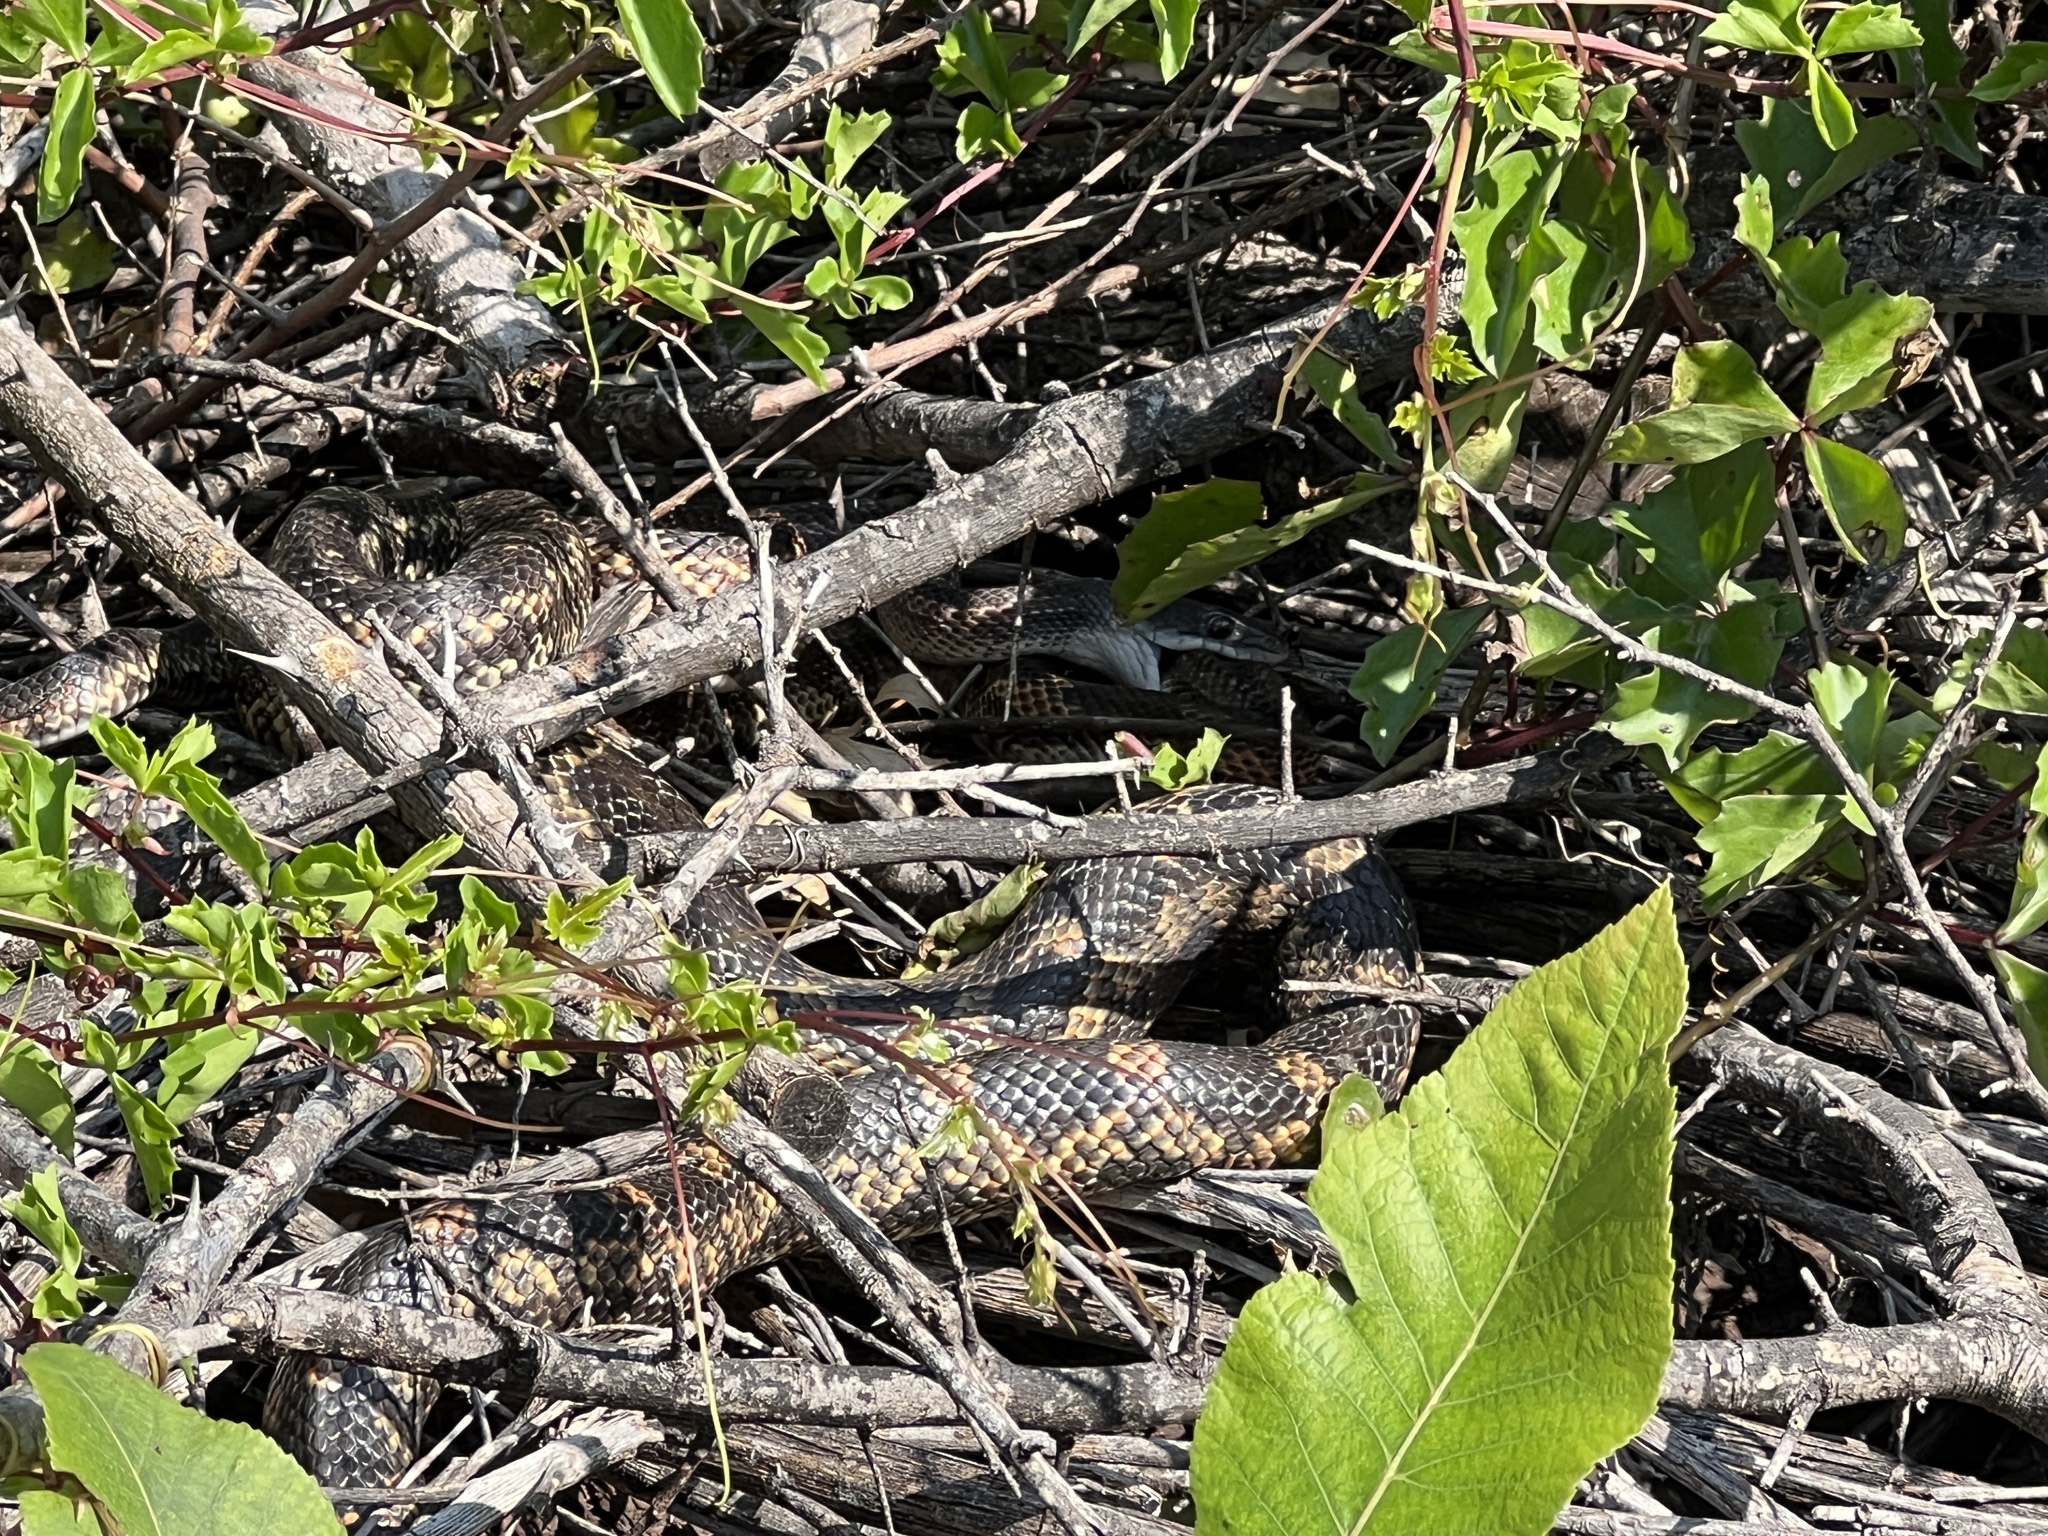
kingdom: Animalia
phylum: Chordata
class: Squamata
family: Colubridae
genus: Pantherophis
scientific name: Pantherophis obsoletus
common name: Black rat snake
